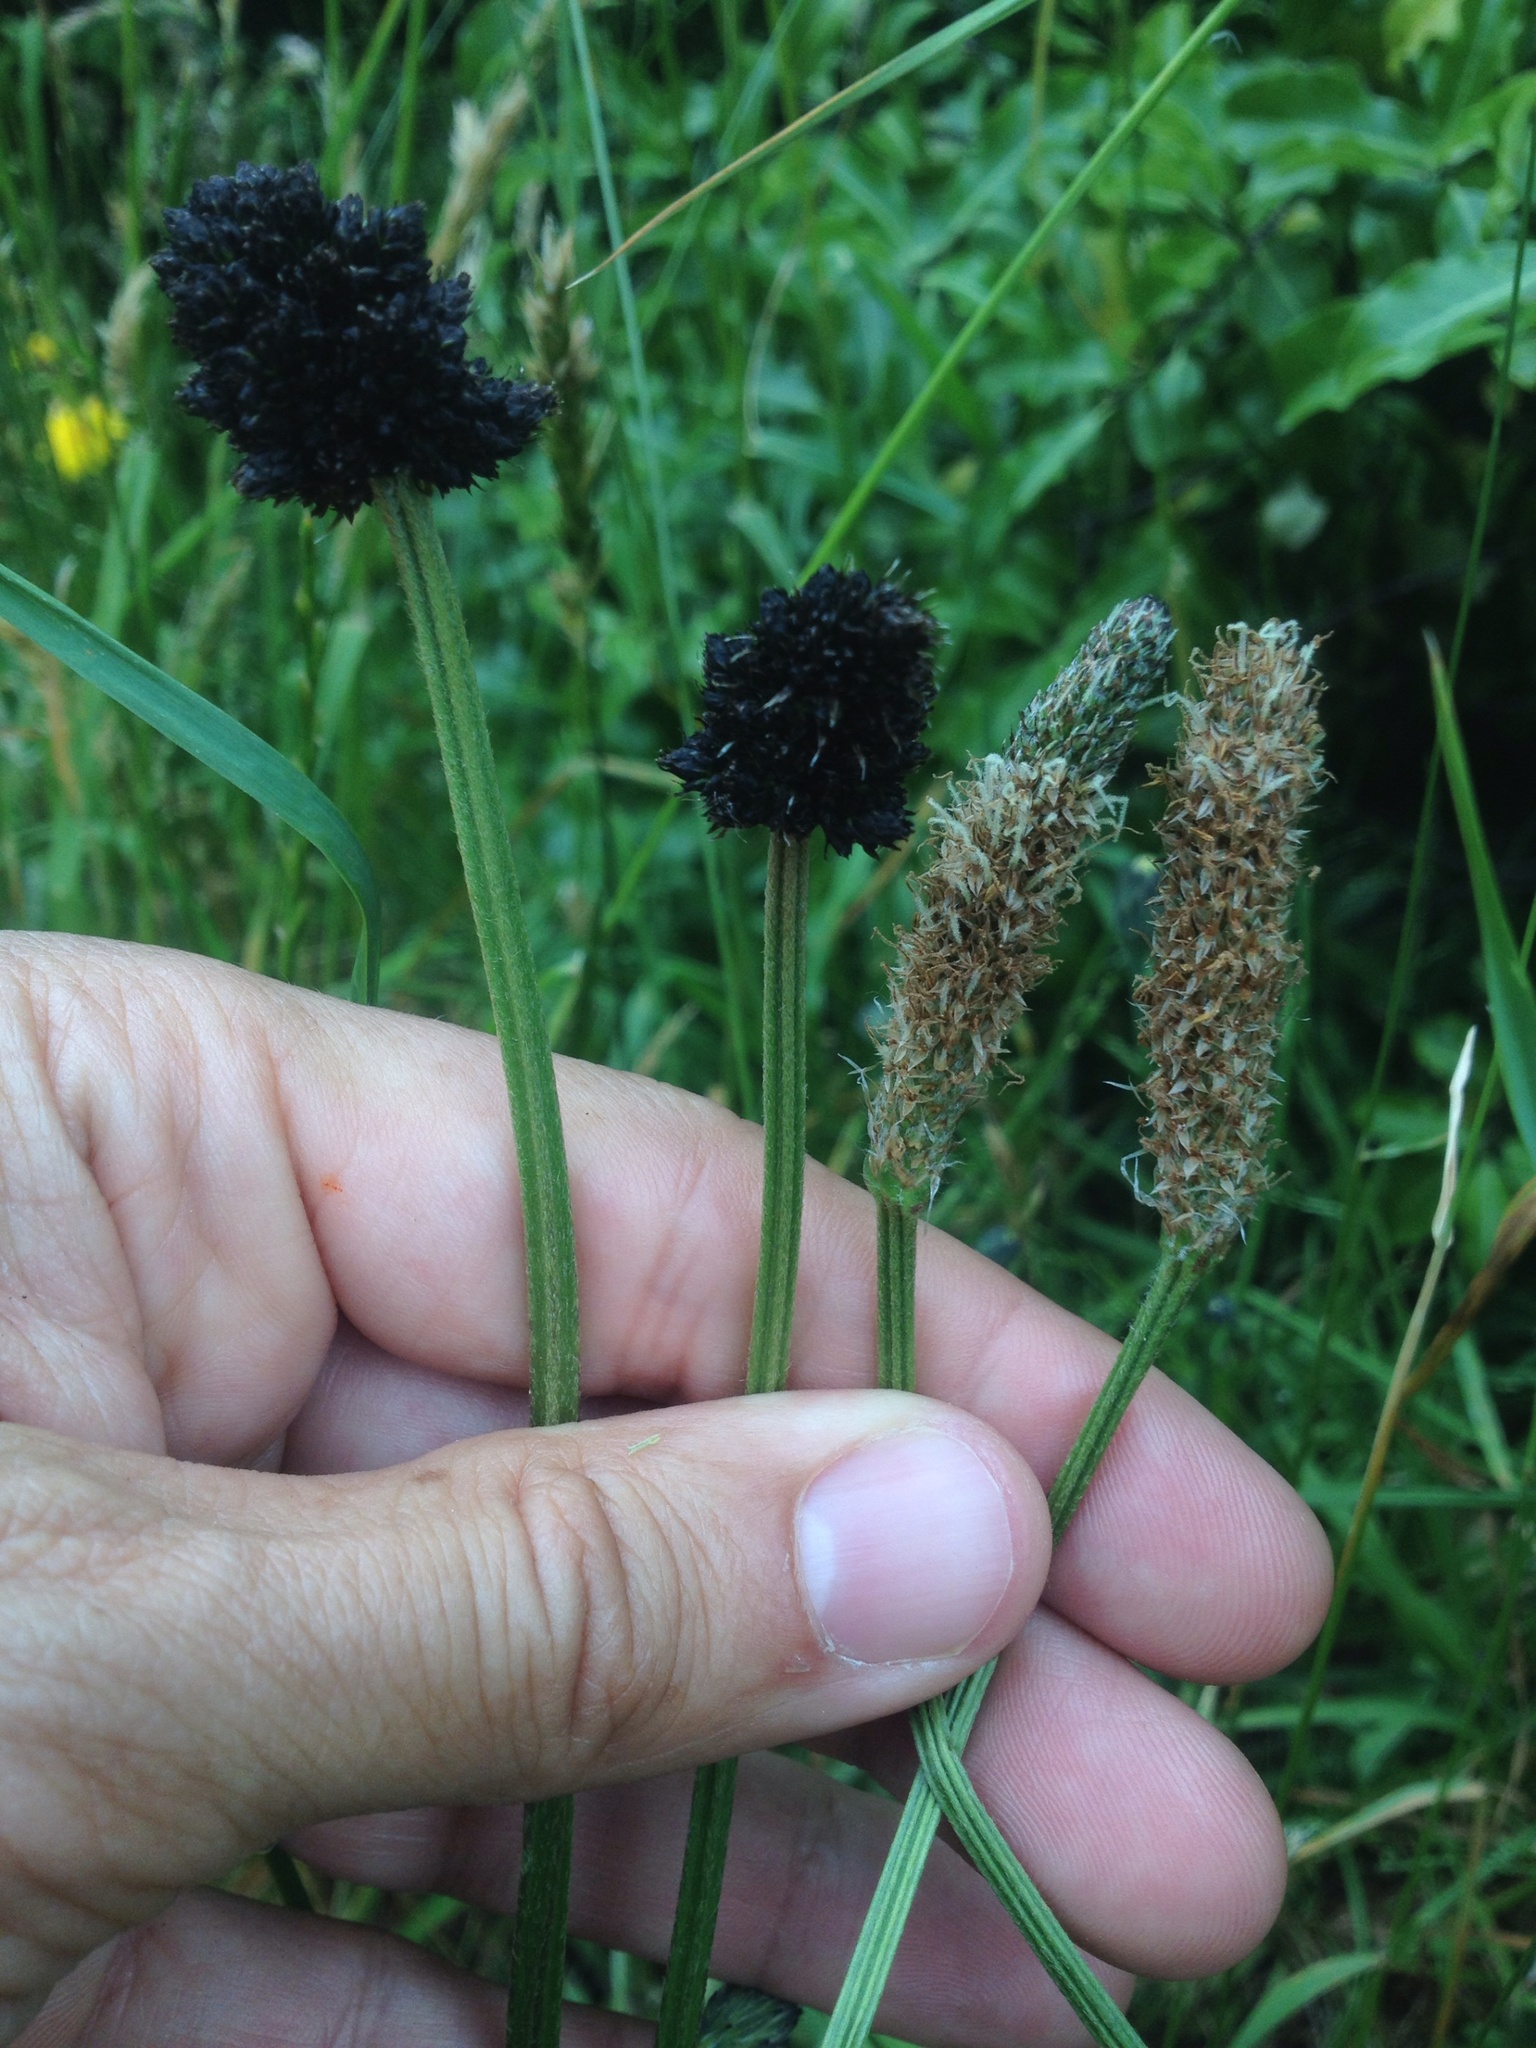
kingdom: Plantae
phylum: Tracheophyta
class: Magnoliopsida
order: Lamiales
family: Plantaginaceae
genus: Plantago
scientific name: Plantago lanceolata
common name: Ribwort plantain
